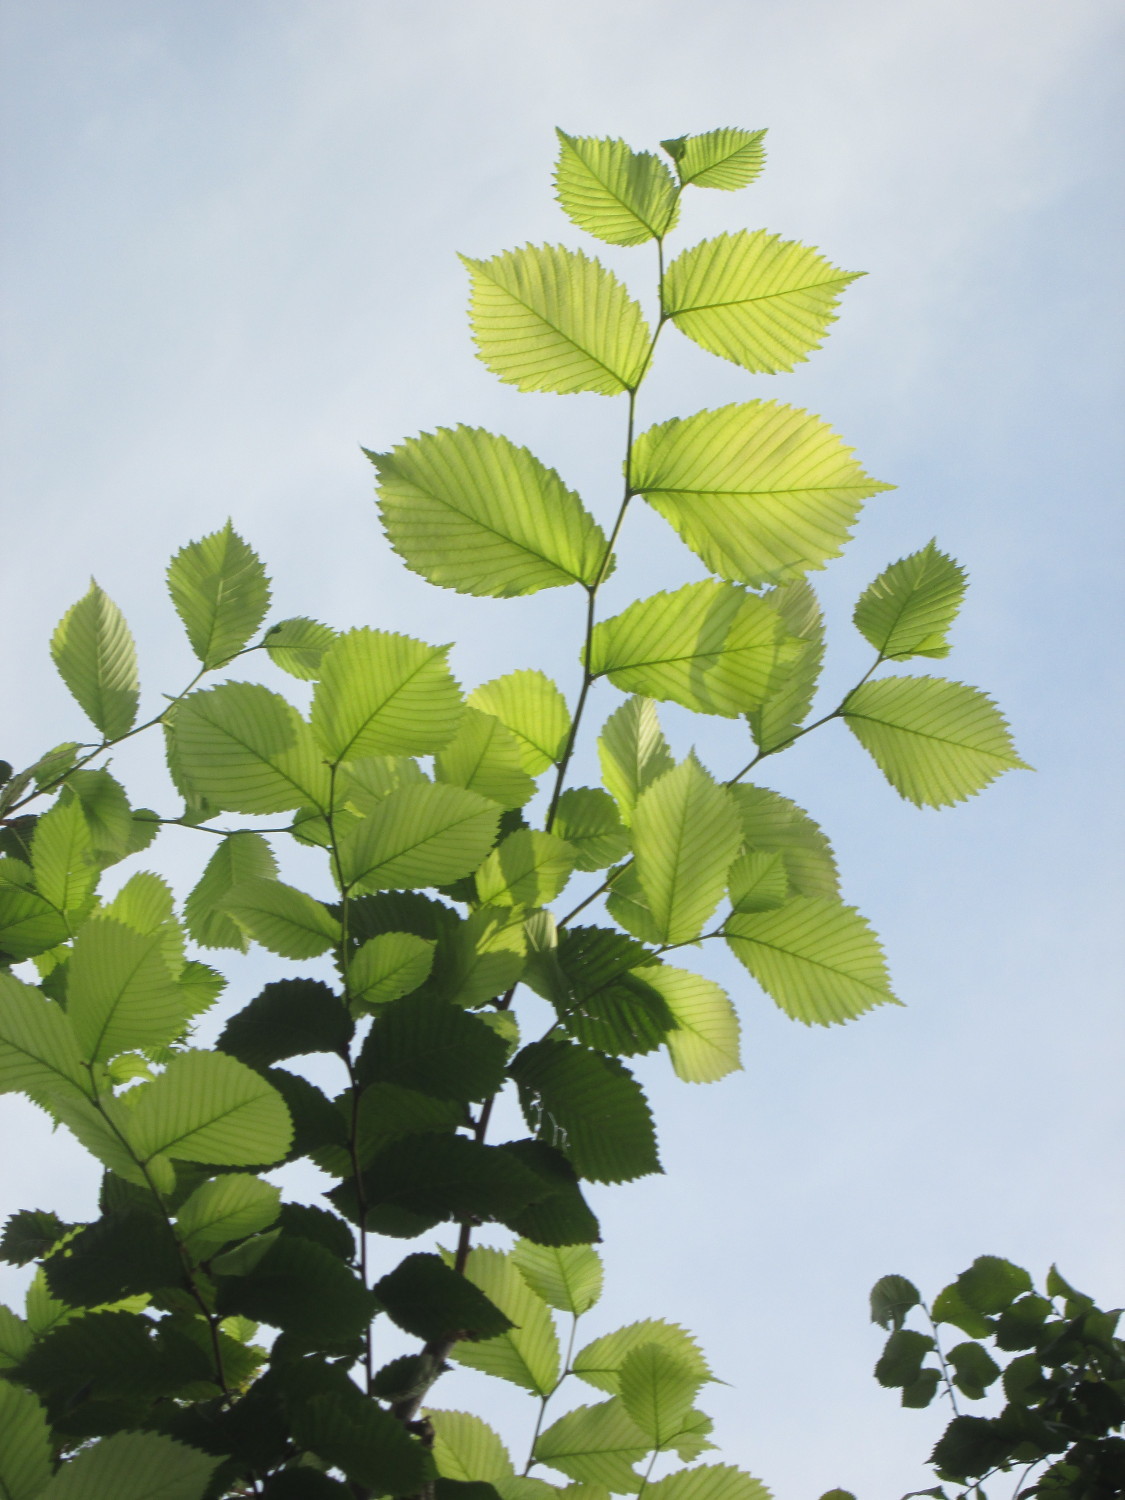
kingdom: Plantae
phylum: Tracheophyta
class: Magnoliopsida
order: Rosales
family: Ulmaceae
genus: Ulmus
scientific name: Ulmus laevis
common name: European white-elm
